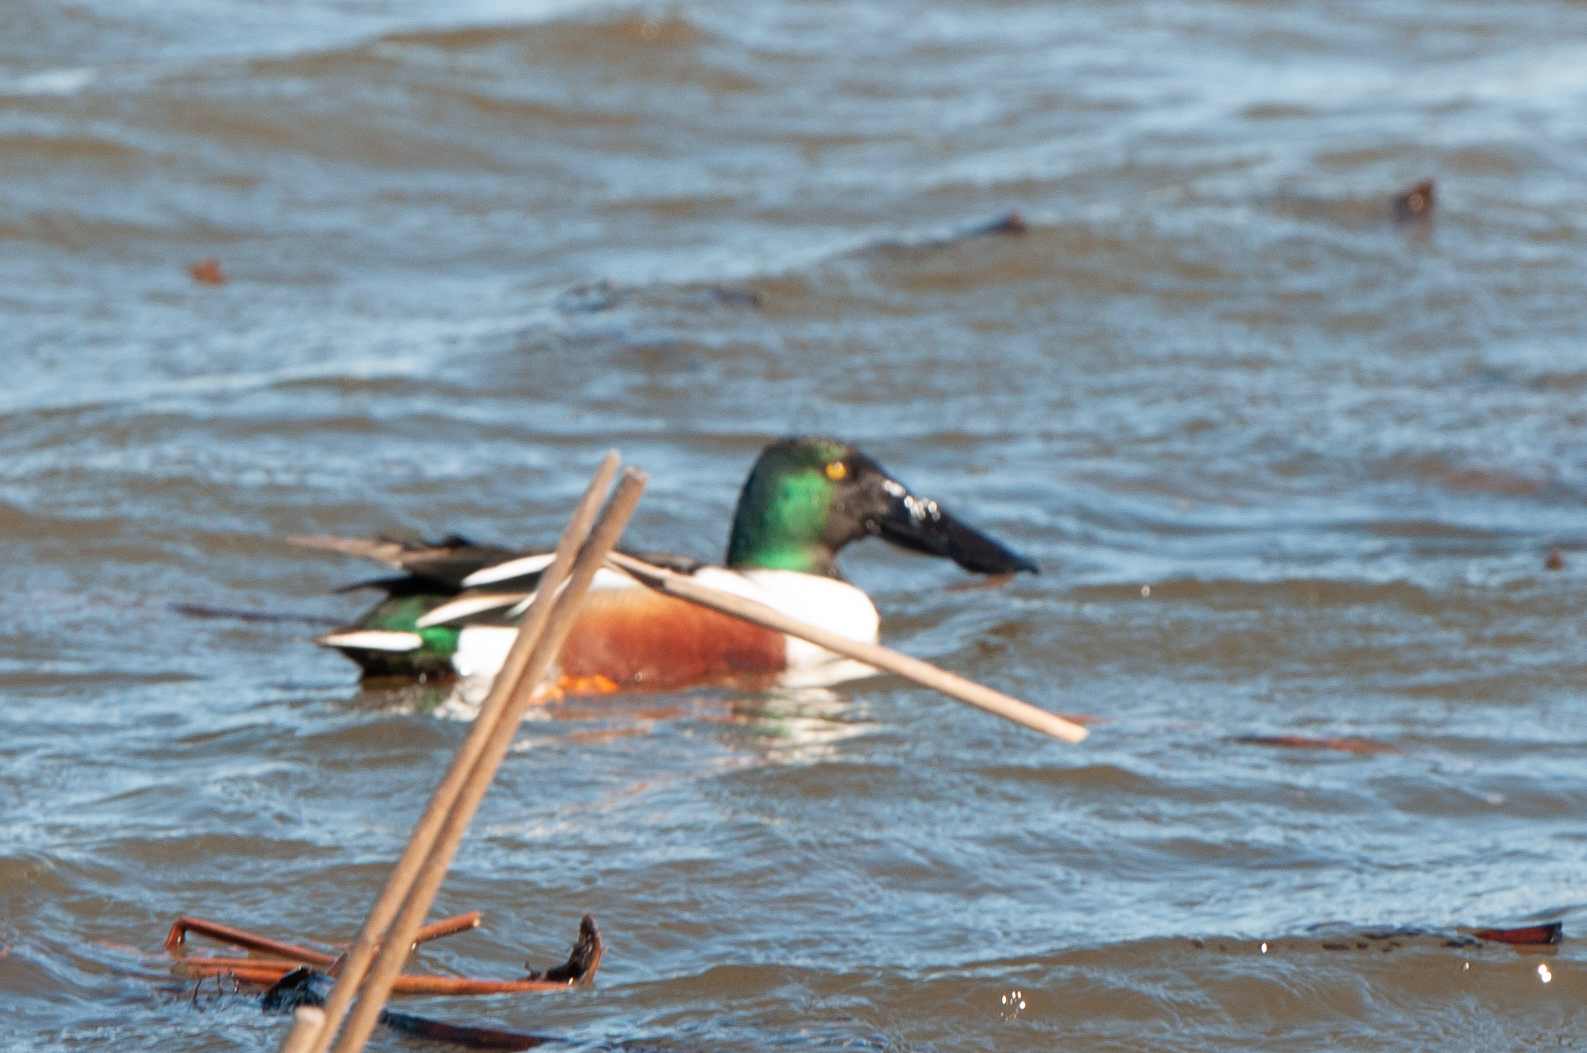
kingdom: Animalia
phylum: Chordata
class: Aves
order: Anseriformes
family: Anatidae
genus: Spatula
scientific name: Spatula clypeata
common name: Northern shoveler
